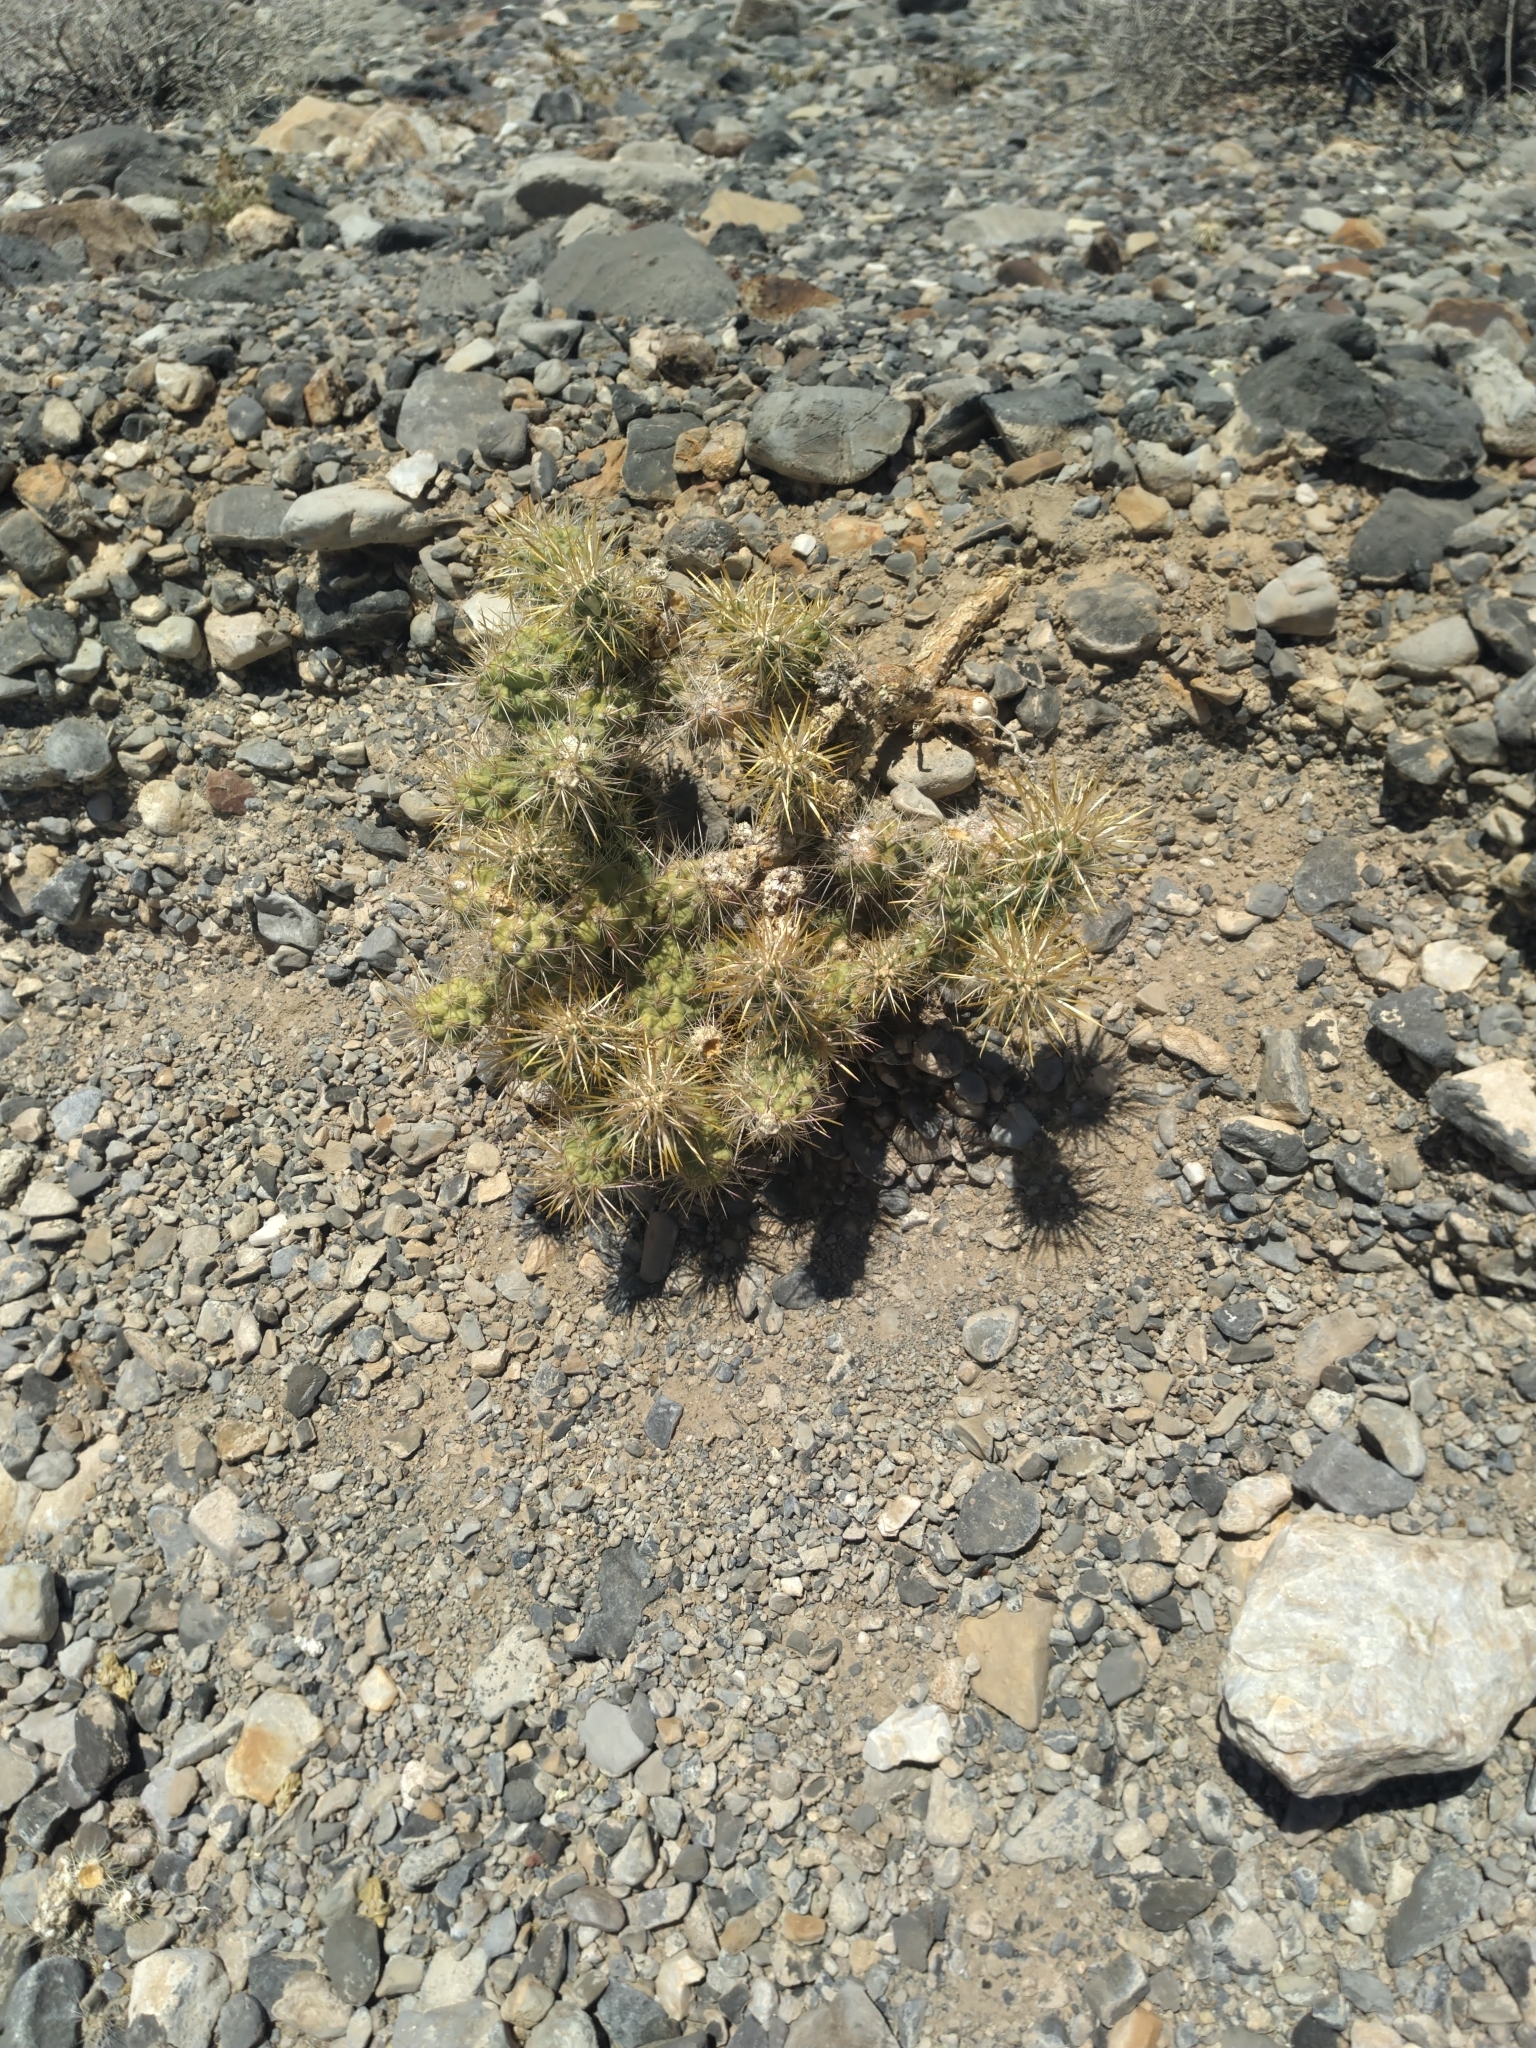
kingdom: Plantae
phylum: Tracheophyta
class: Magnoliopsida
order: Caryophyllales
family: Cactaceae
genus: Cylindropuntia
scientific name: Cylindropuntia echinocarpa
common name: Ground cholla
